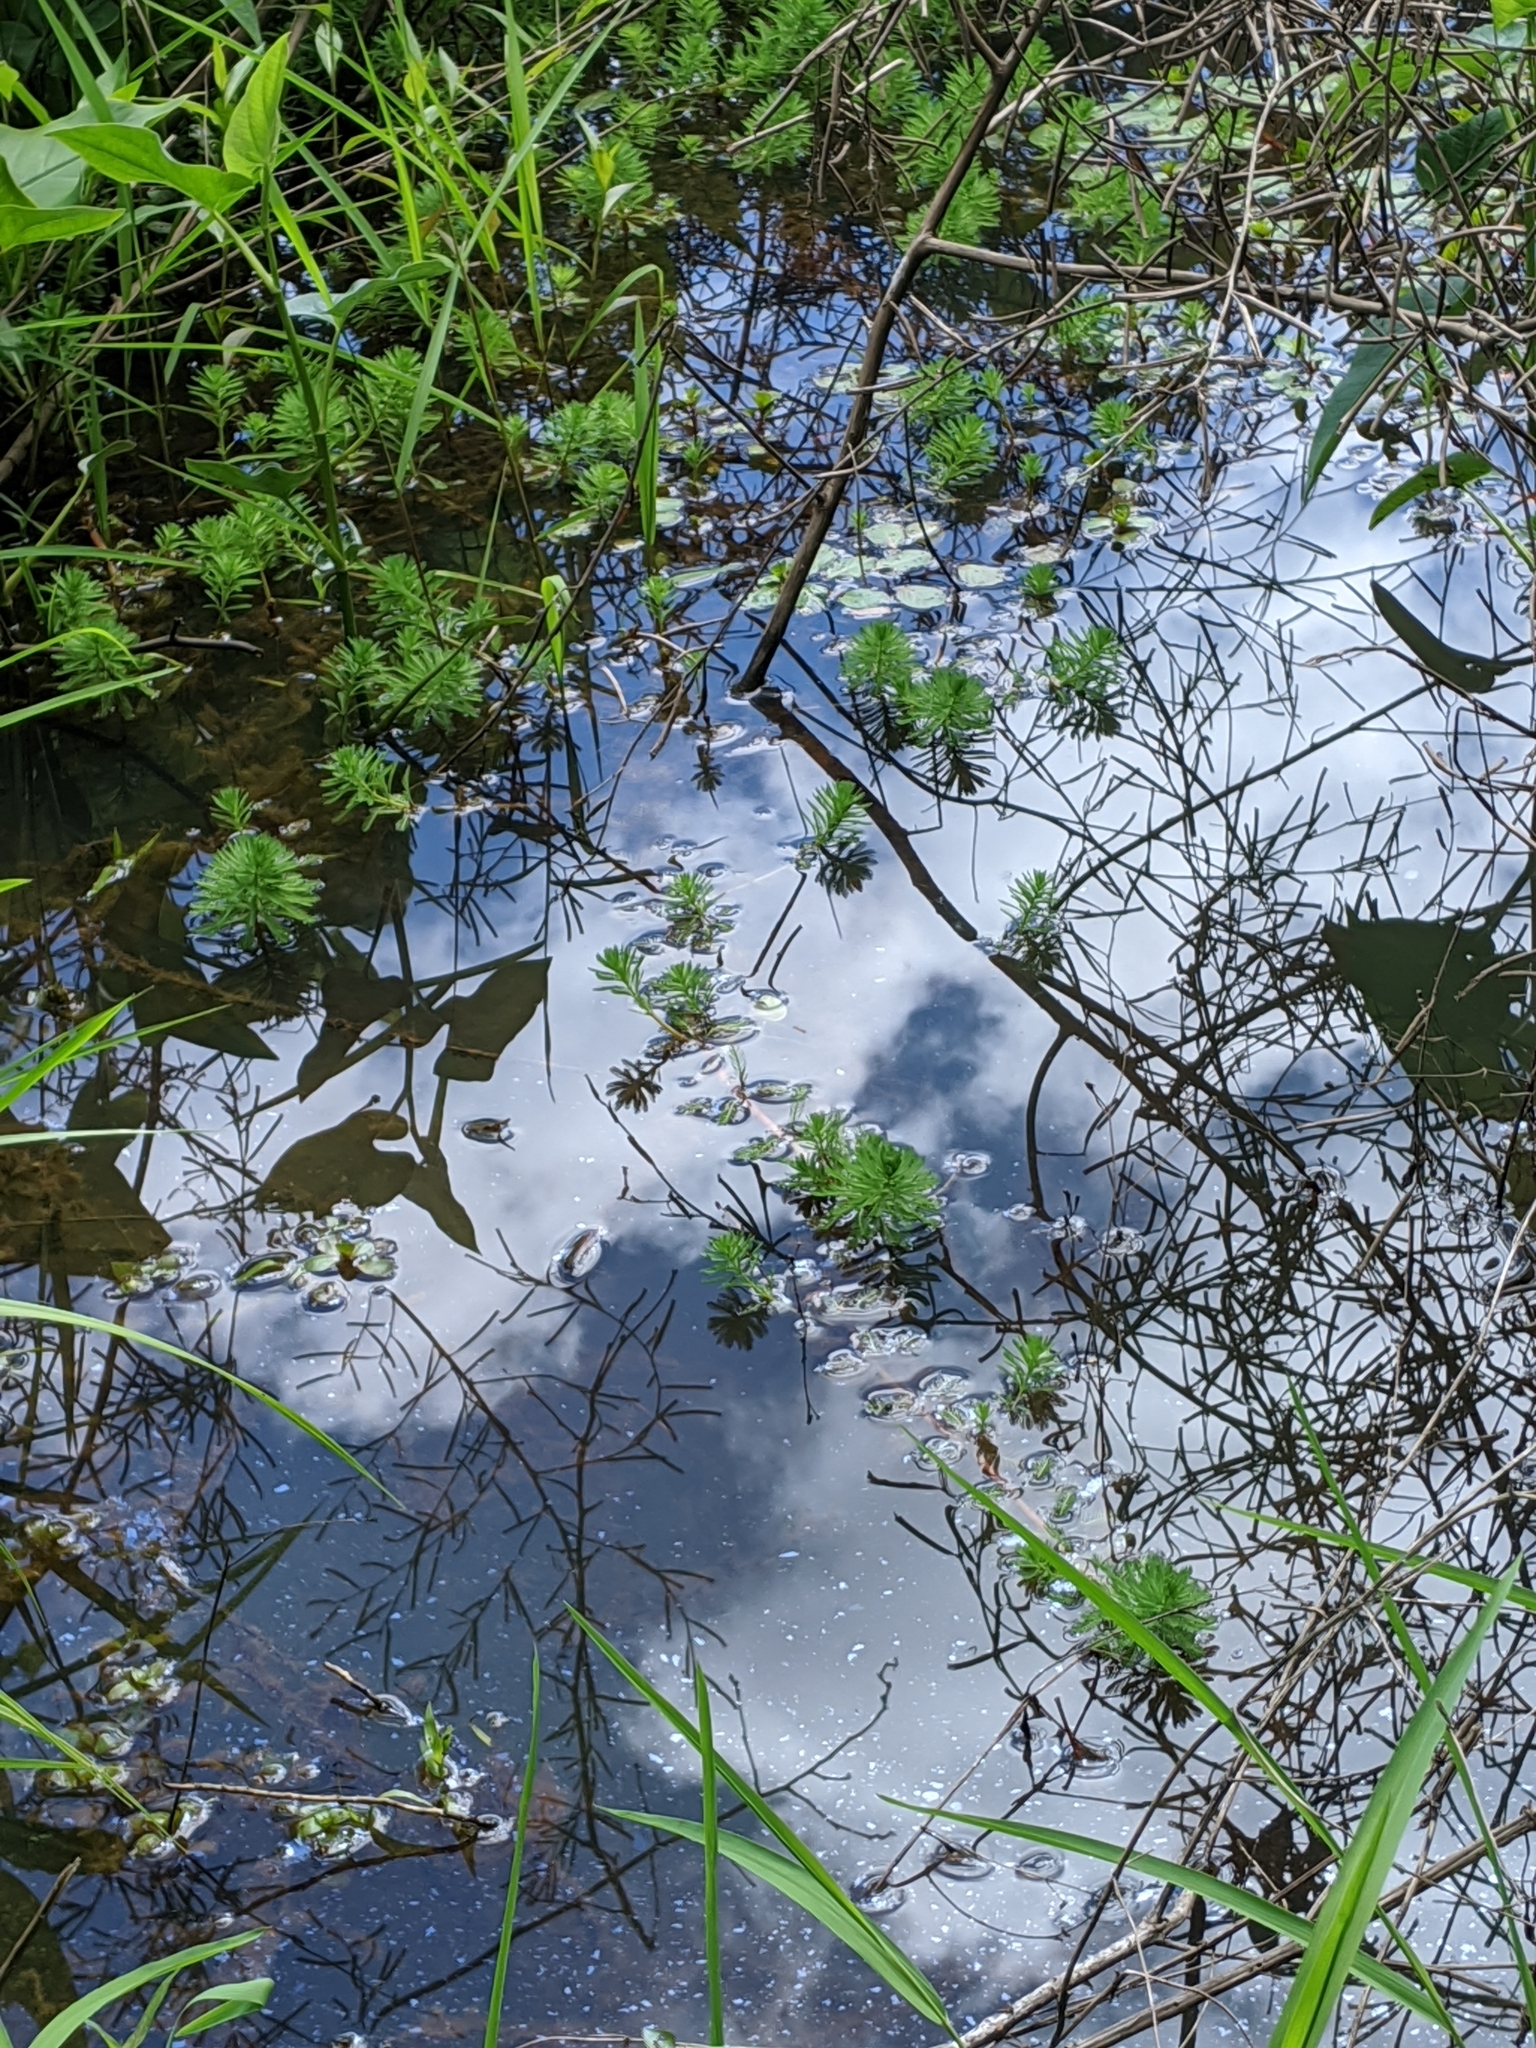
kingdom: Plantae
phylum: Tracheophyta
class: Magnoliopsida
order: Saxifragales
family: Haloragaceae
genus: Myriophyllum
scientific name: Myriophyllum aquaticum
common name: Parrot's feather
